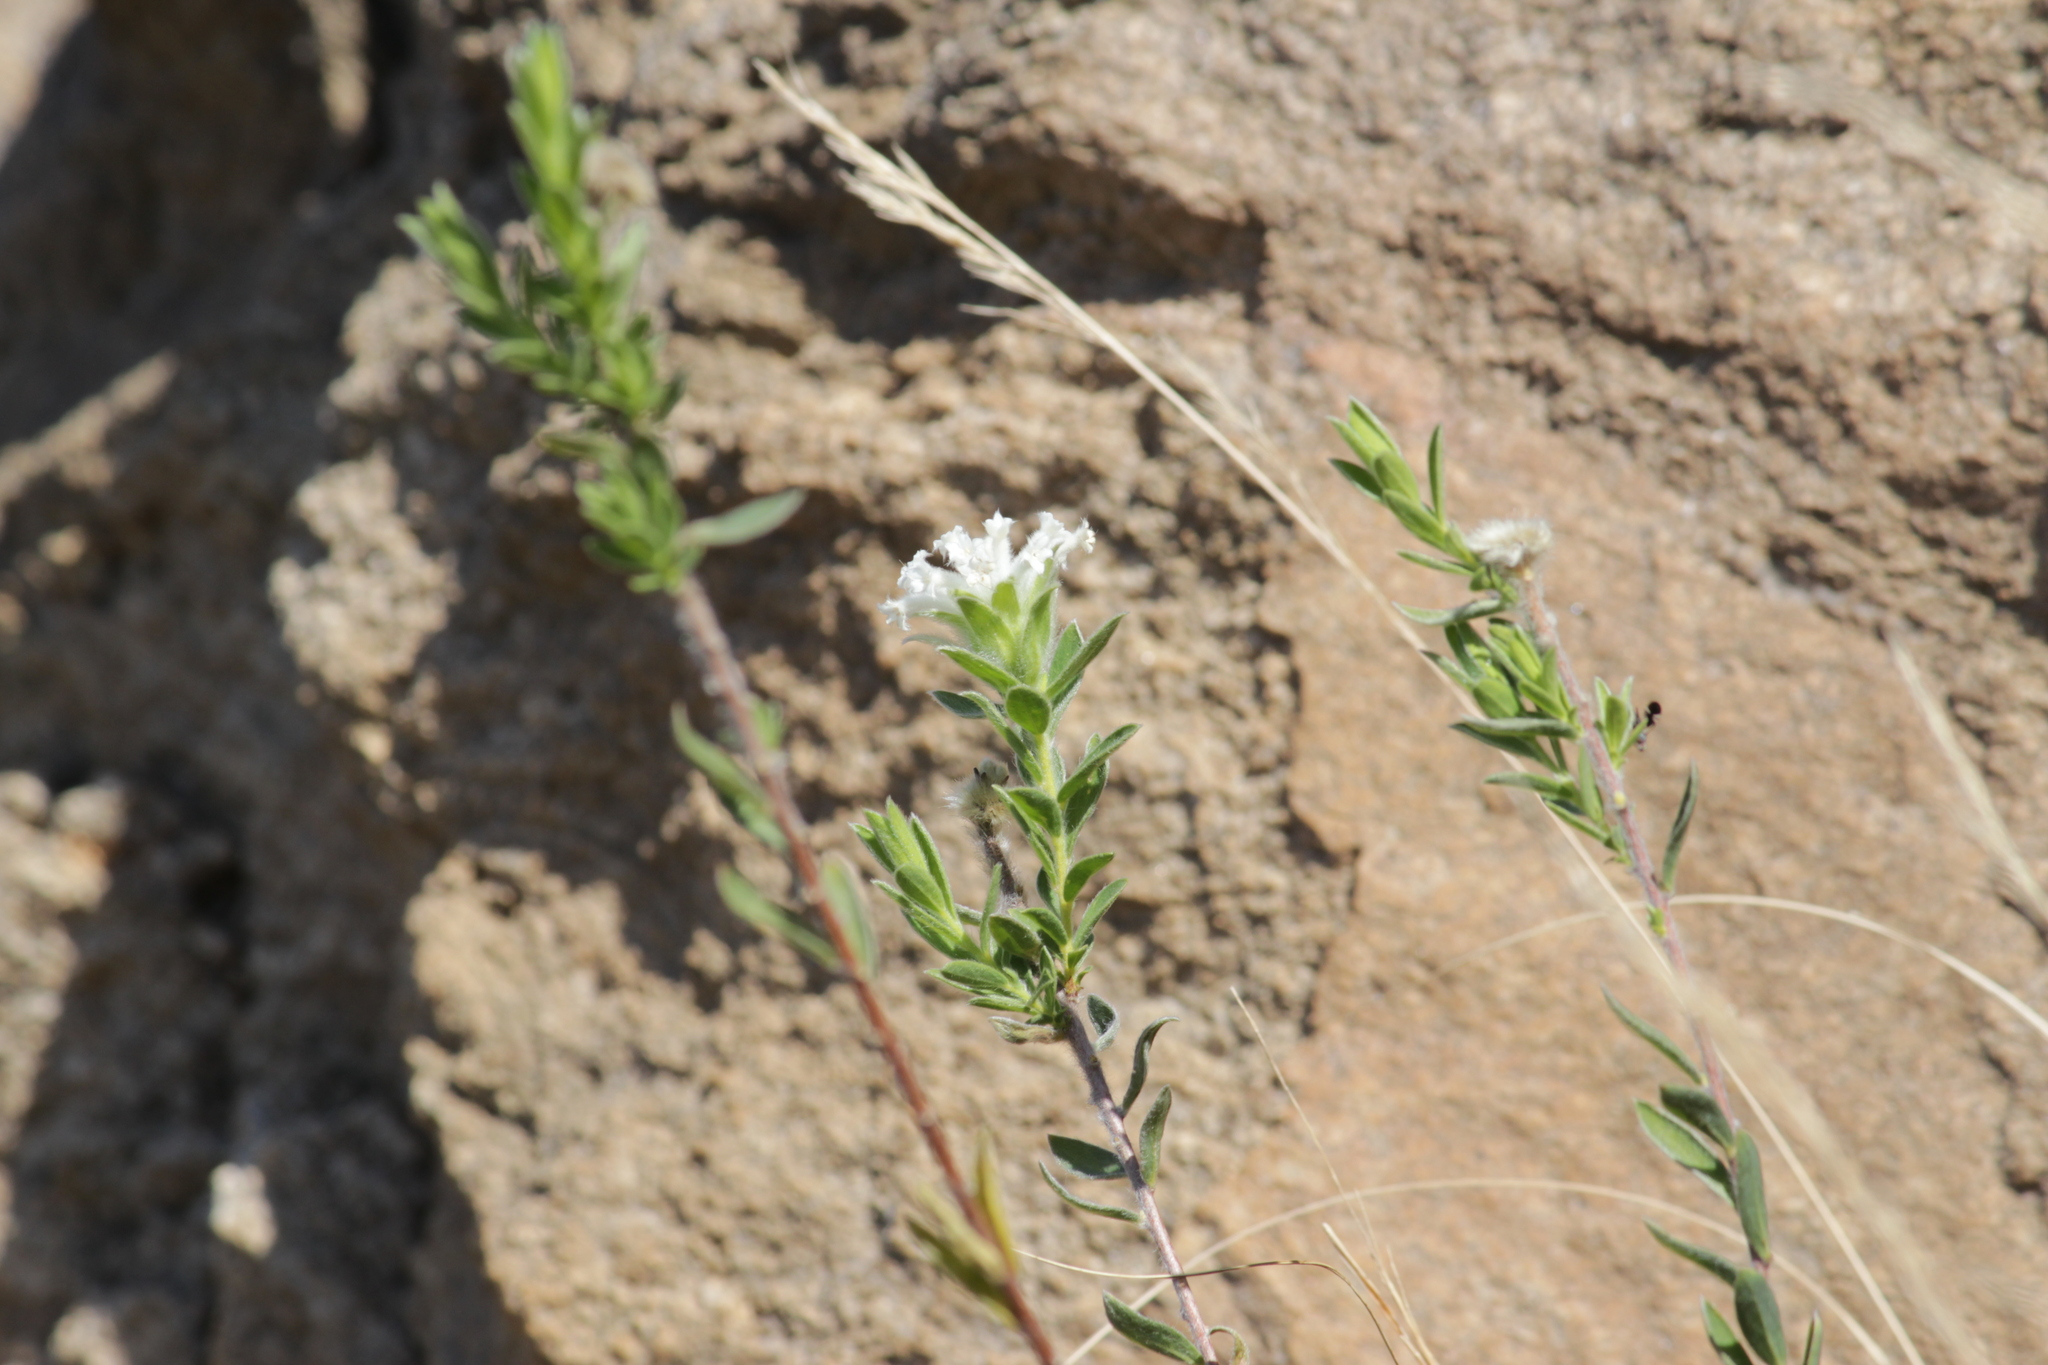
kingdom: Plantae
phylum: Tracheophyta
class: Magnoliopsida
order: Malvales
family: Thymelaeaceae
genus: Gnidia
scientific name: Gnidia calocephala
